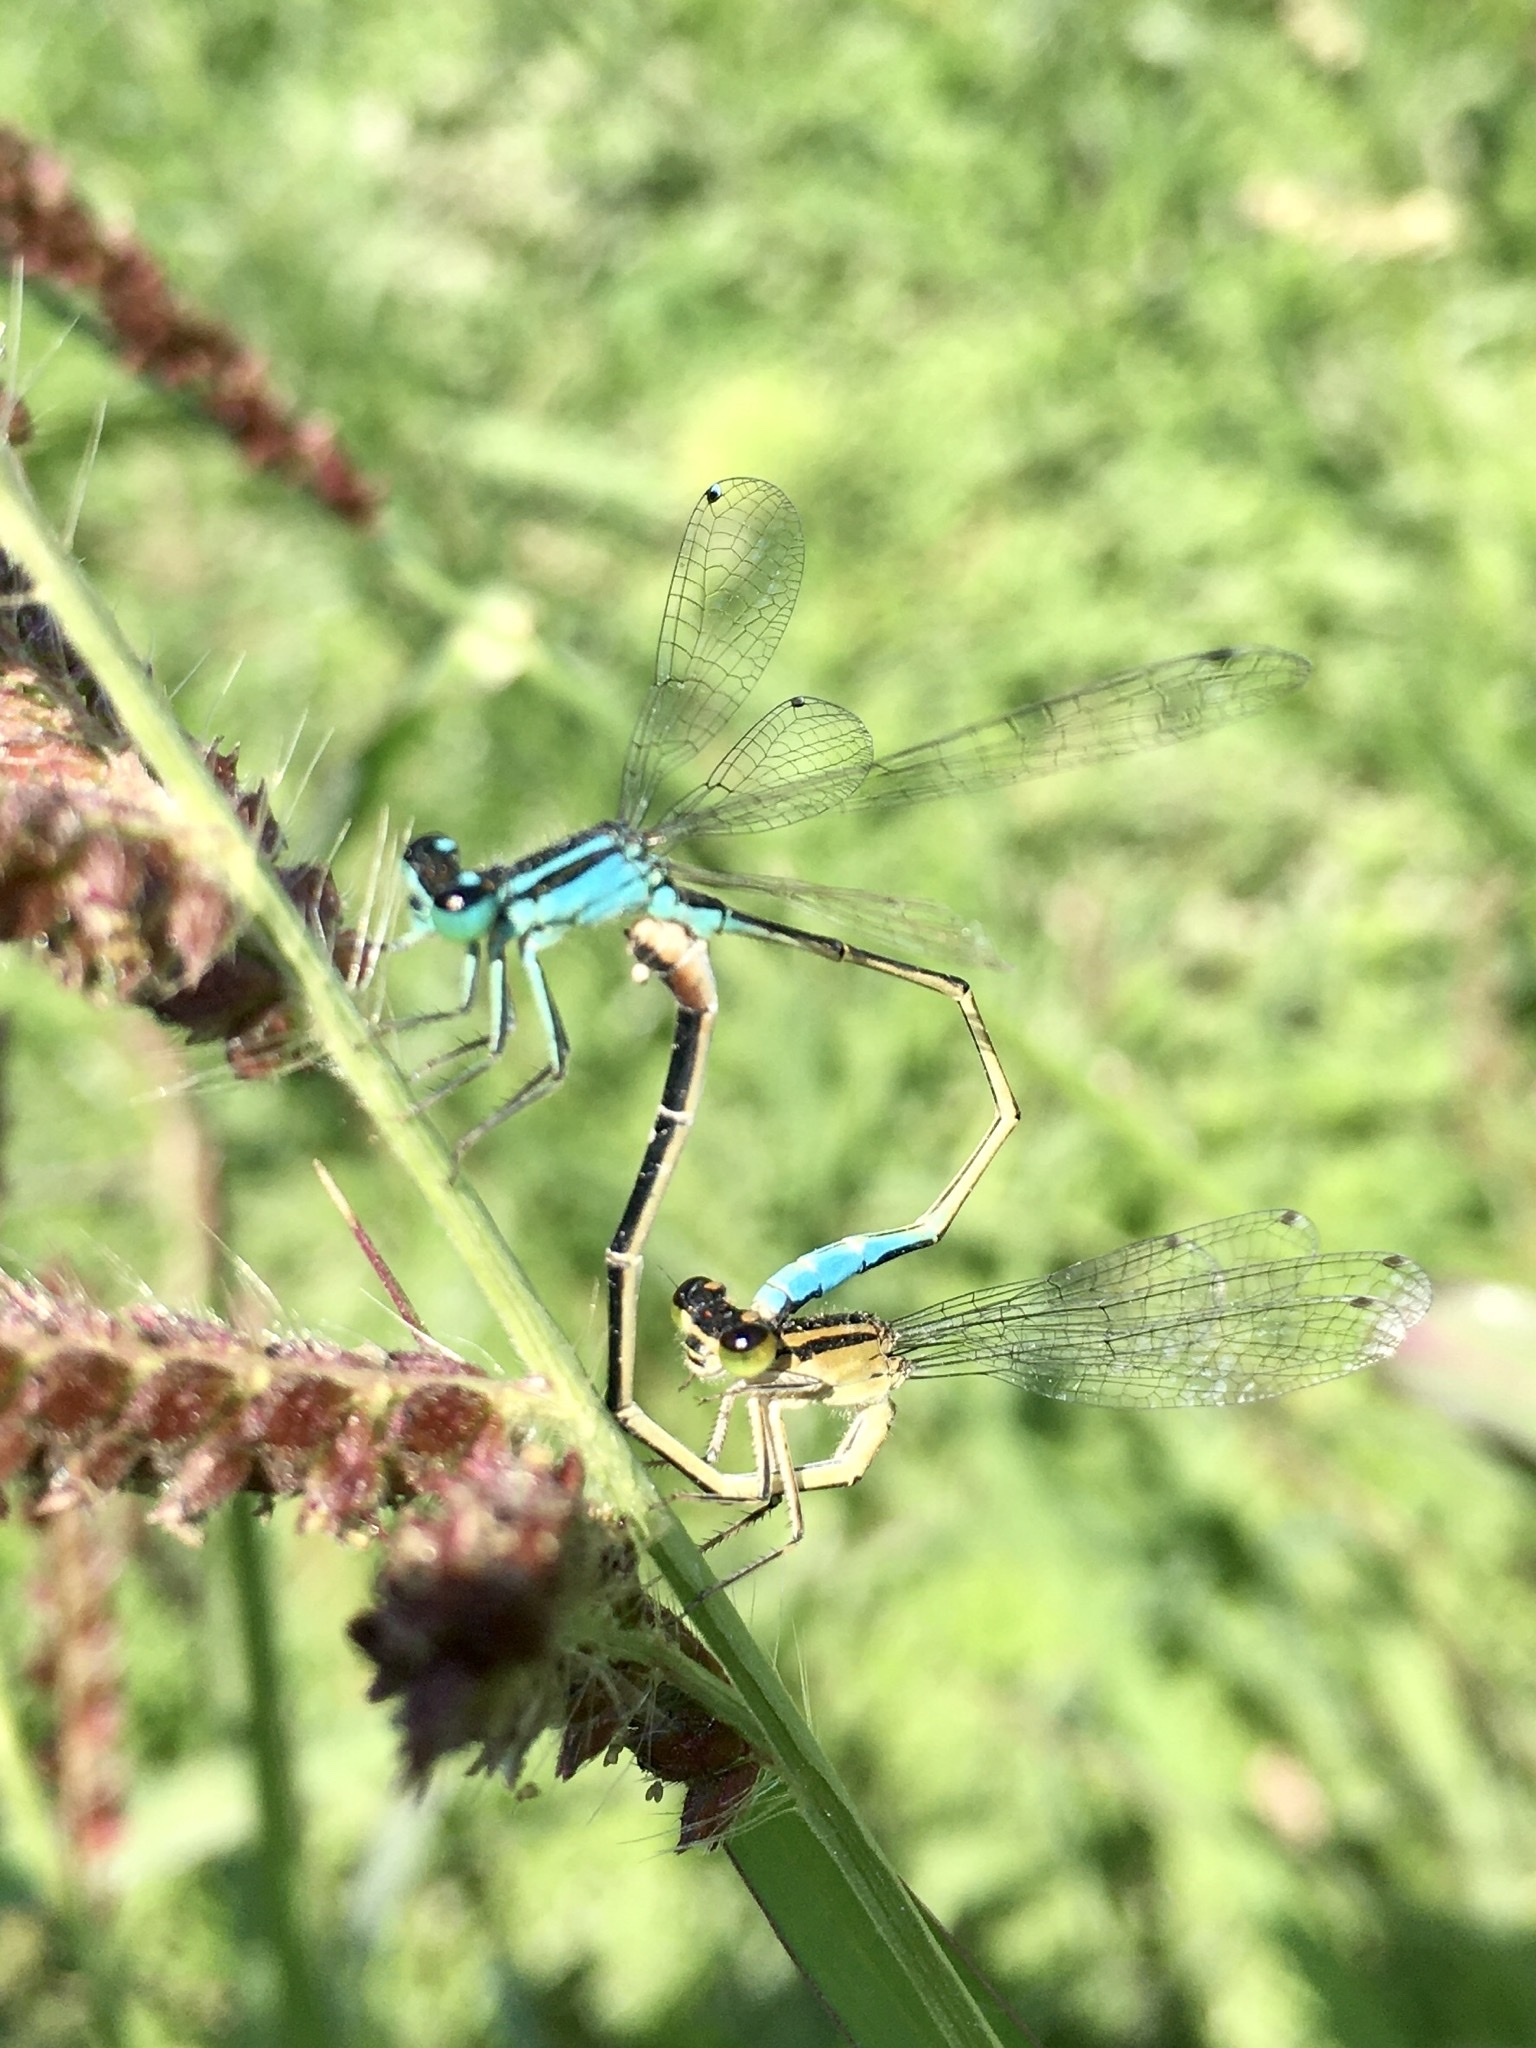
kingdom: Animalia
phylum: Arthropoda
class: Insecta
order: Odonata
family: Coenagrionidae
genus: Ischnura
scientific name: Ischnura elegans
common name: Blue-tailed damselfly
